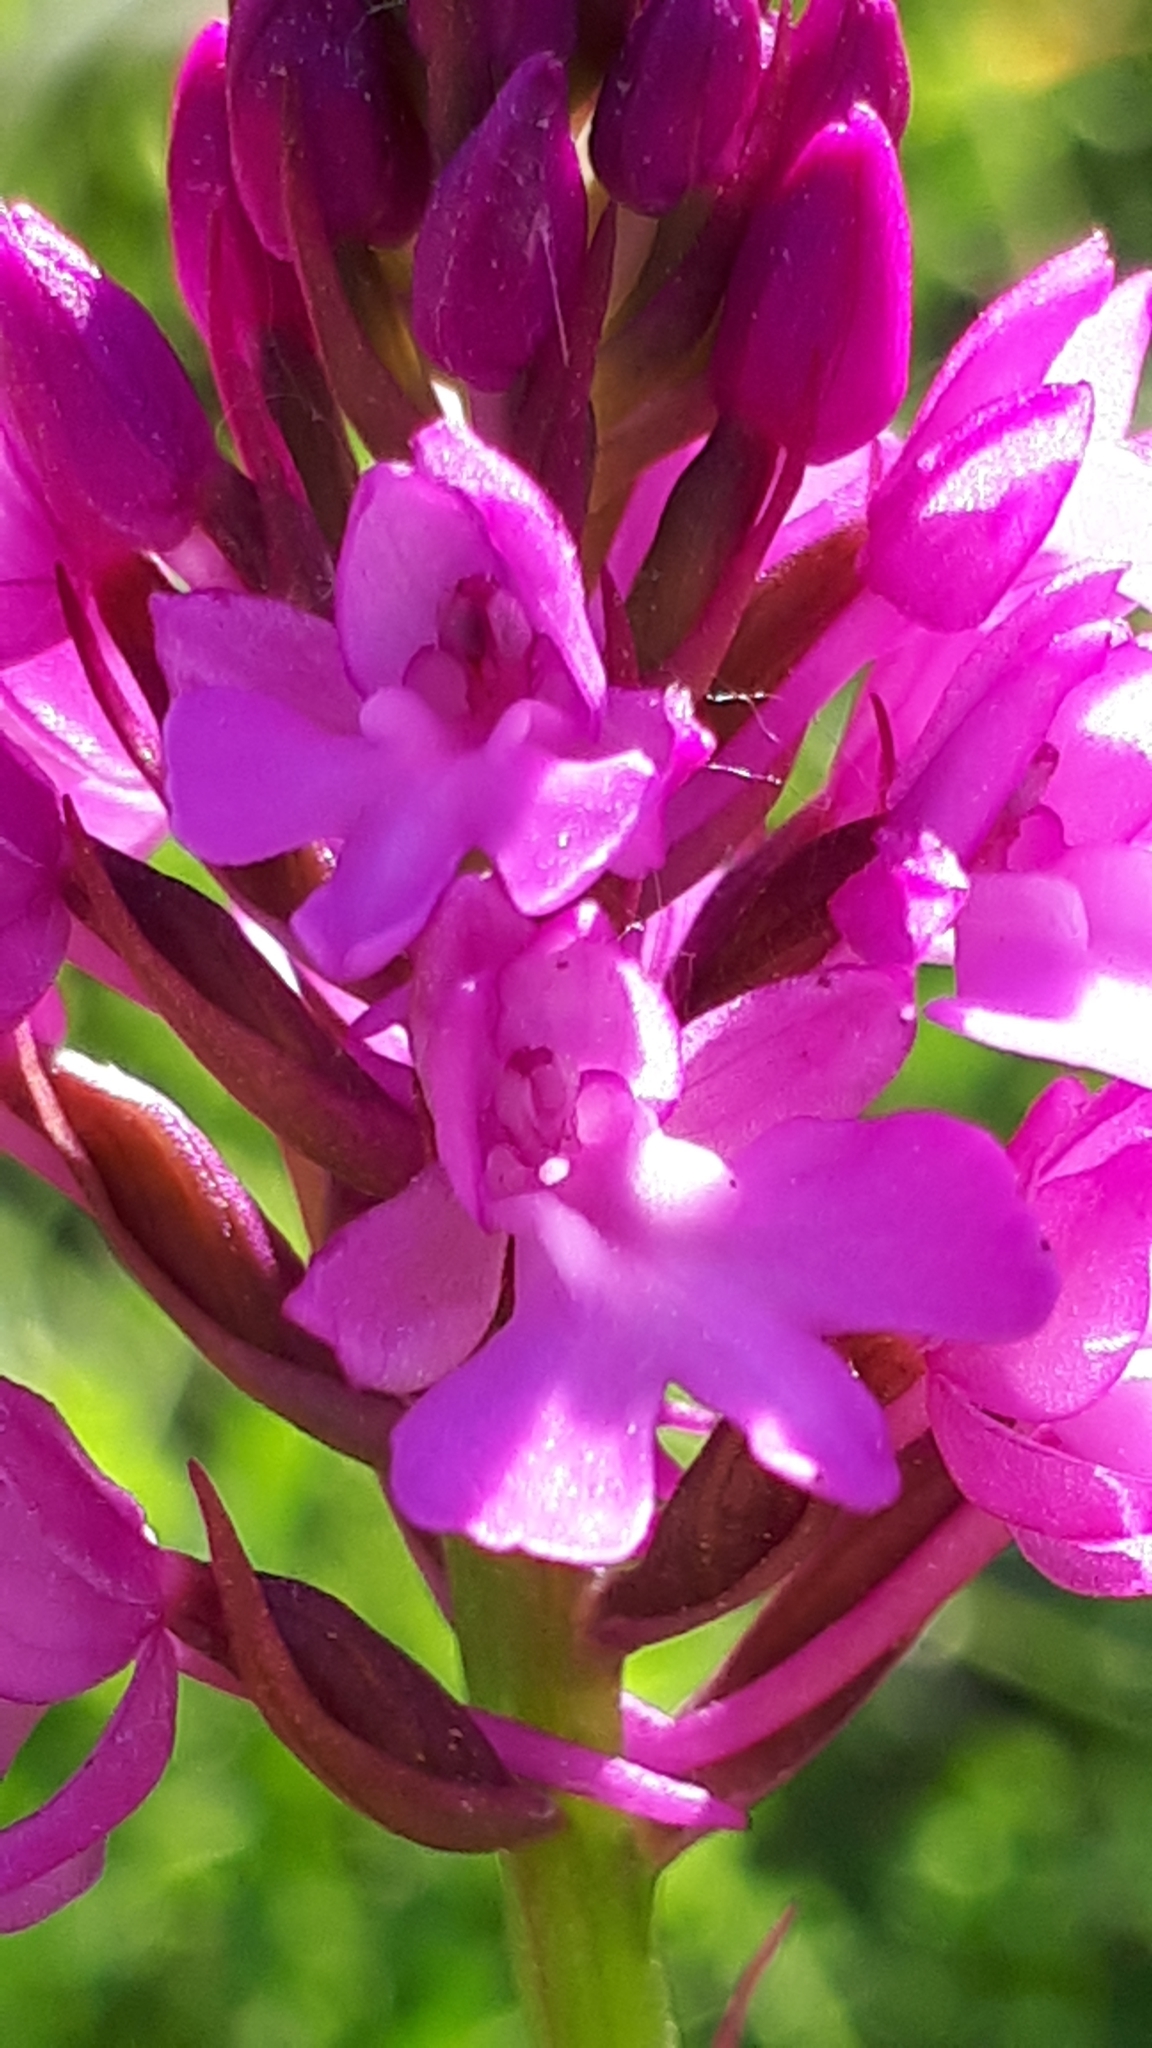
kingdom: Plantae
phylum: Tracheophyta
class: Liliopsida
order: Asparagales
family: Orchidaceae
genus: Anacamptis
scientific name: Anacamptis pyramidalis
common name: Pyramidal orchid
